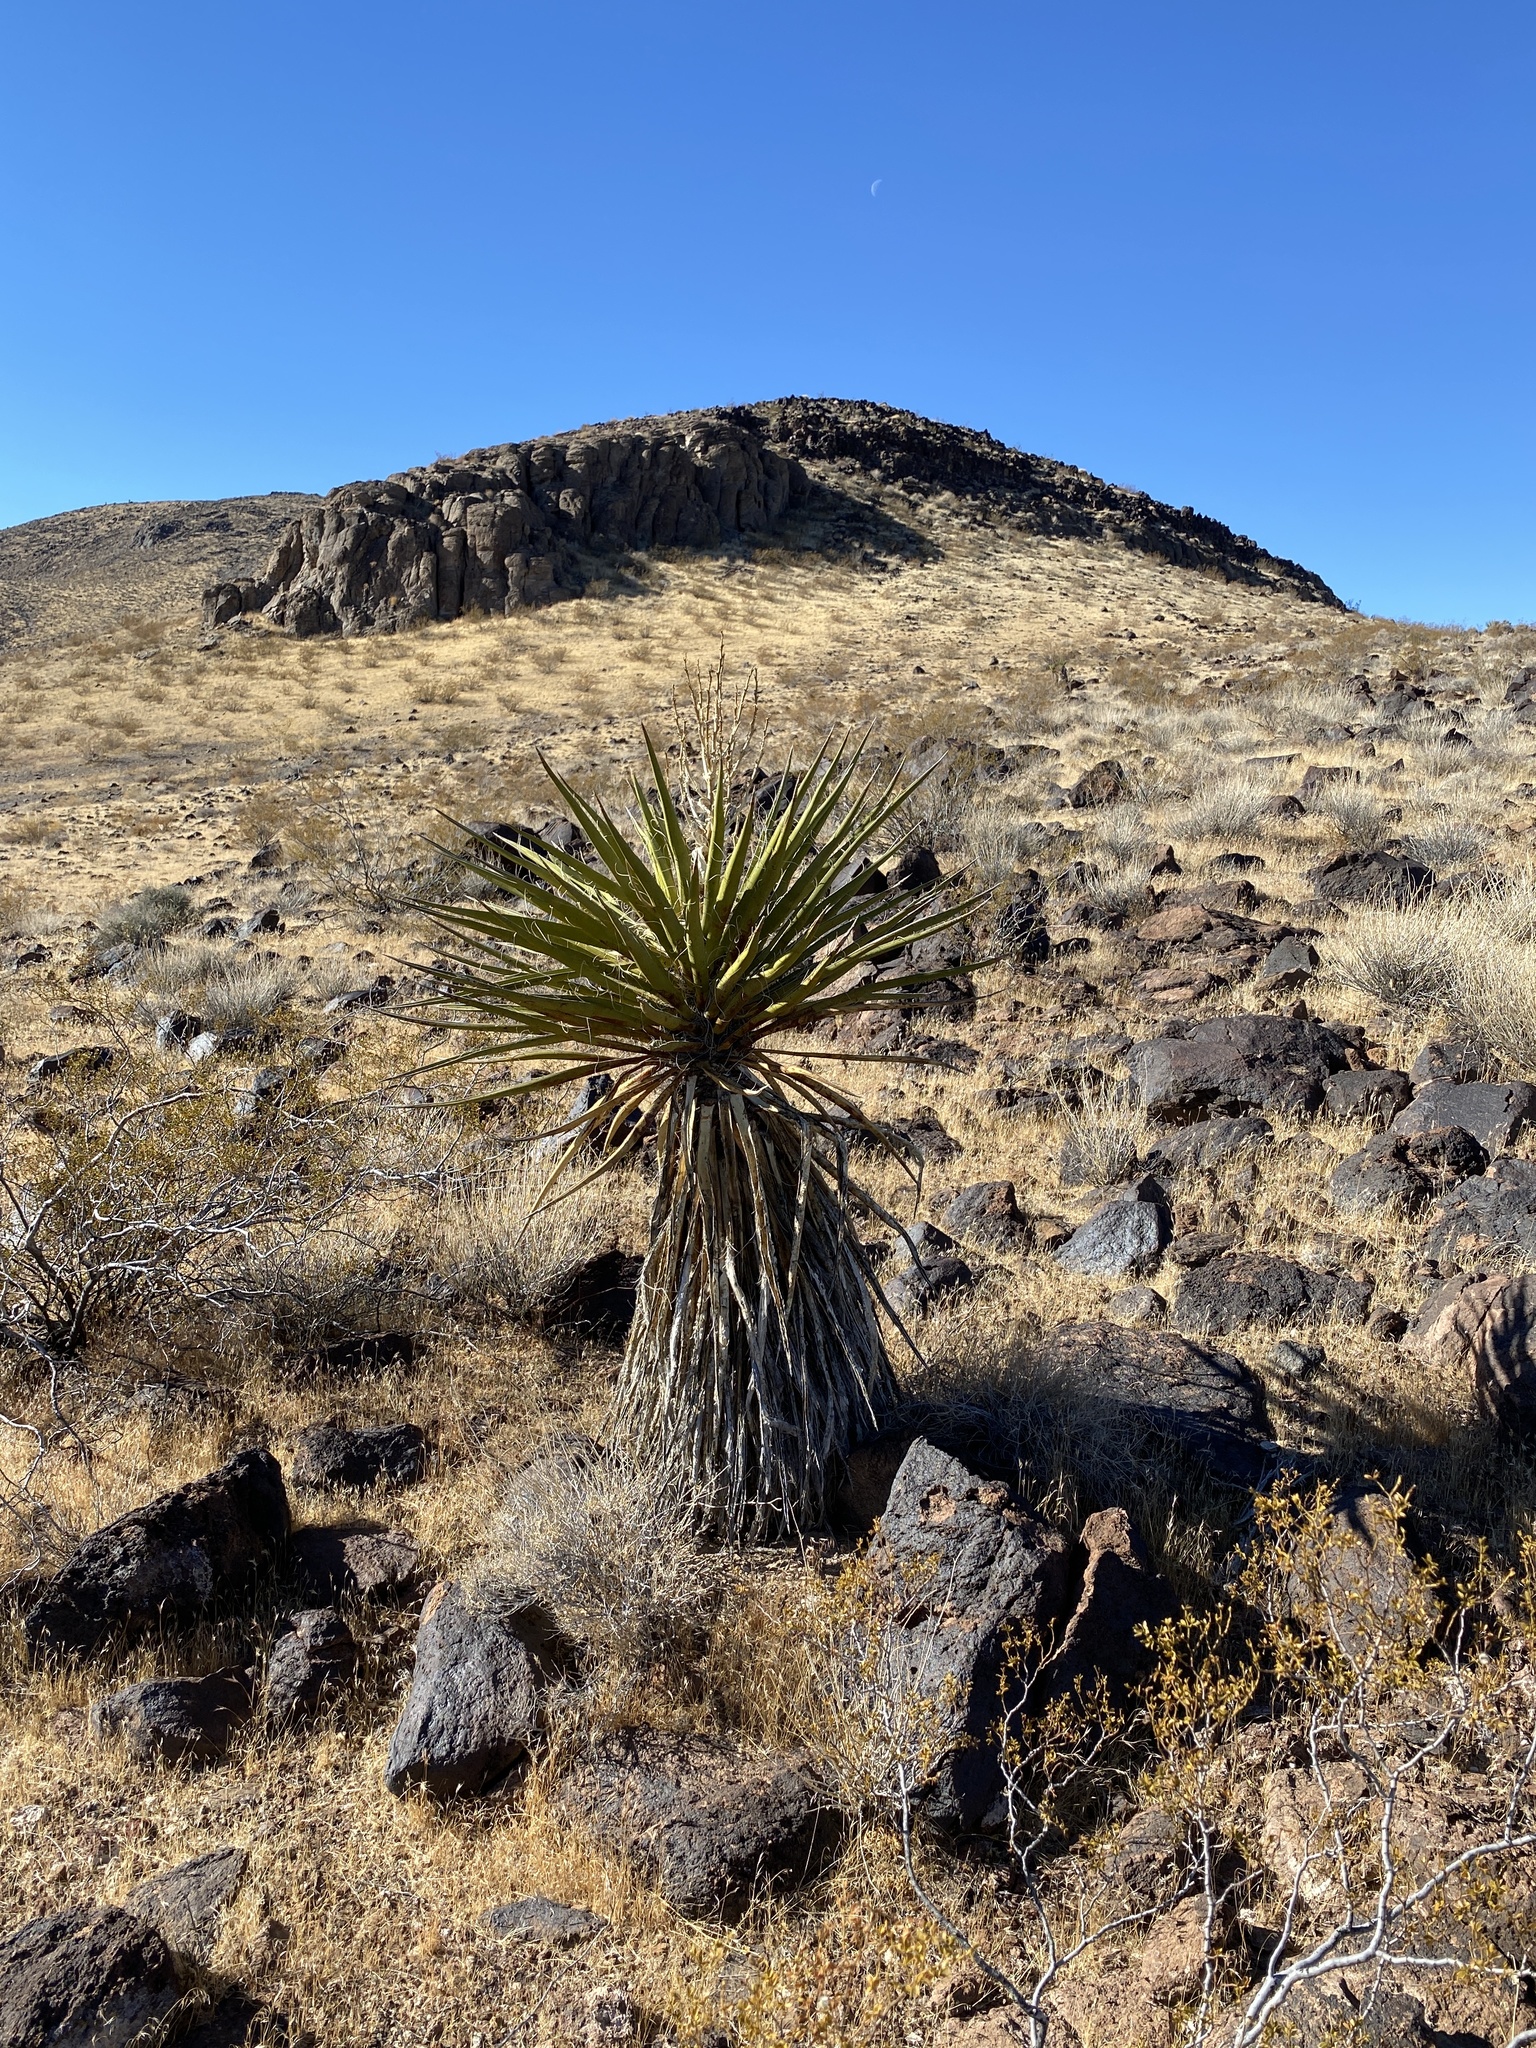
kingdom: Plantae
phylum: Tracheophyta
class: Liliopsida
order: Asparagales
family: Asparagaceae
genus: Yucca
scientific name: Yucca schidigera
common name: Mojave yucca
